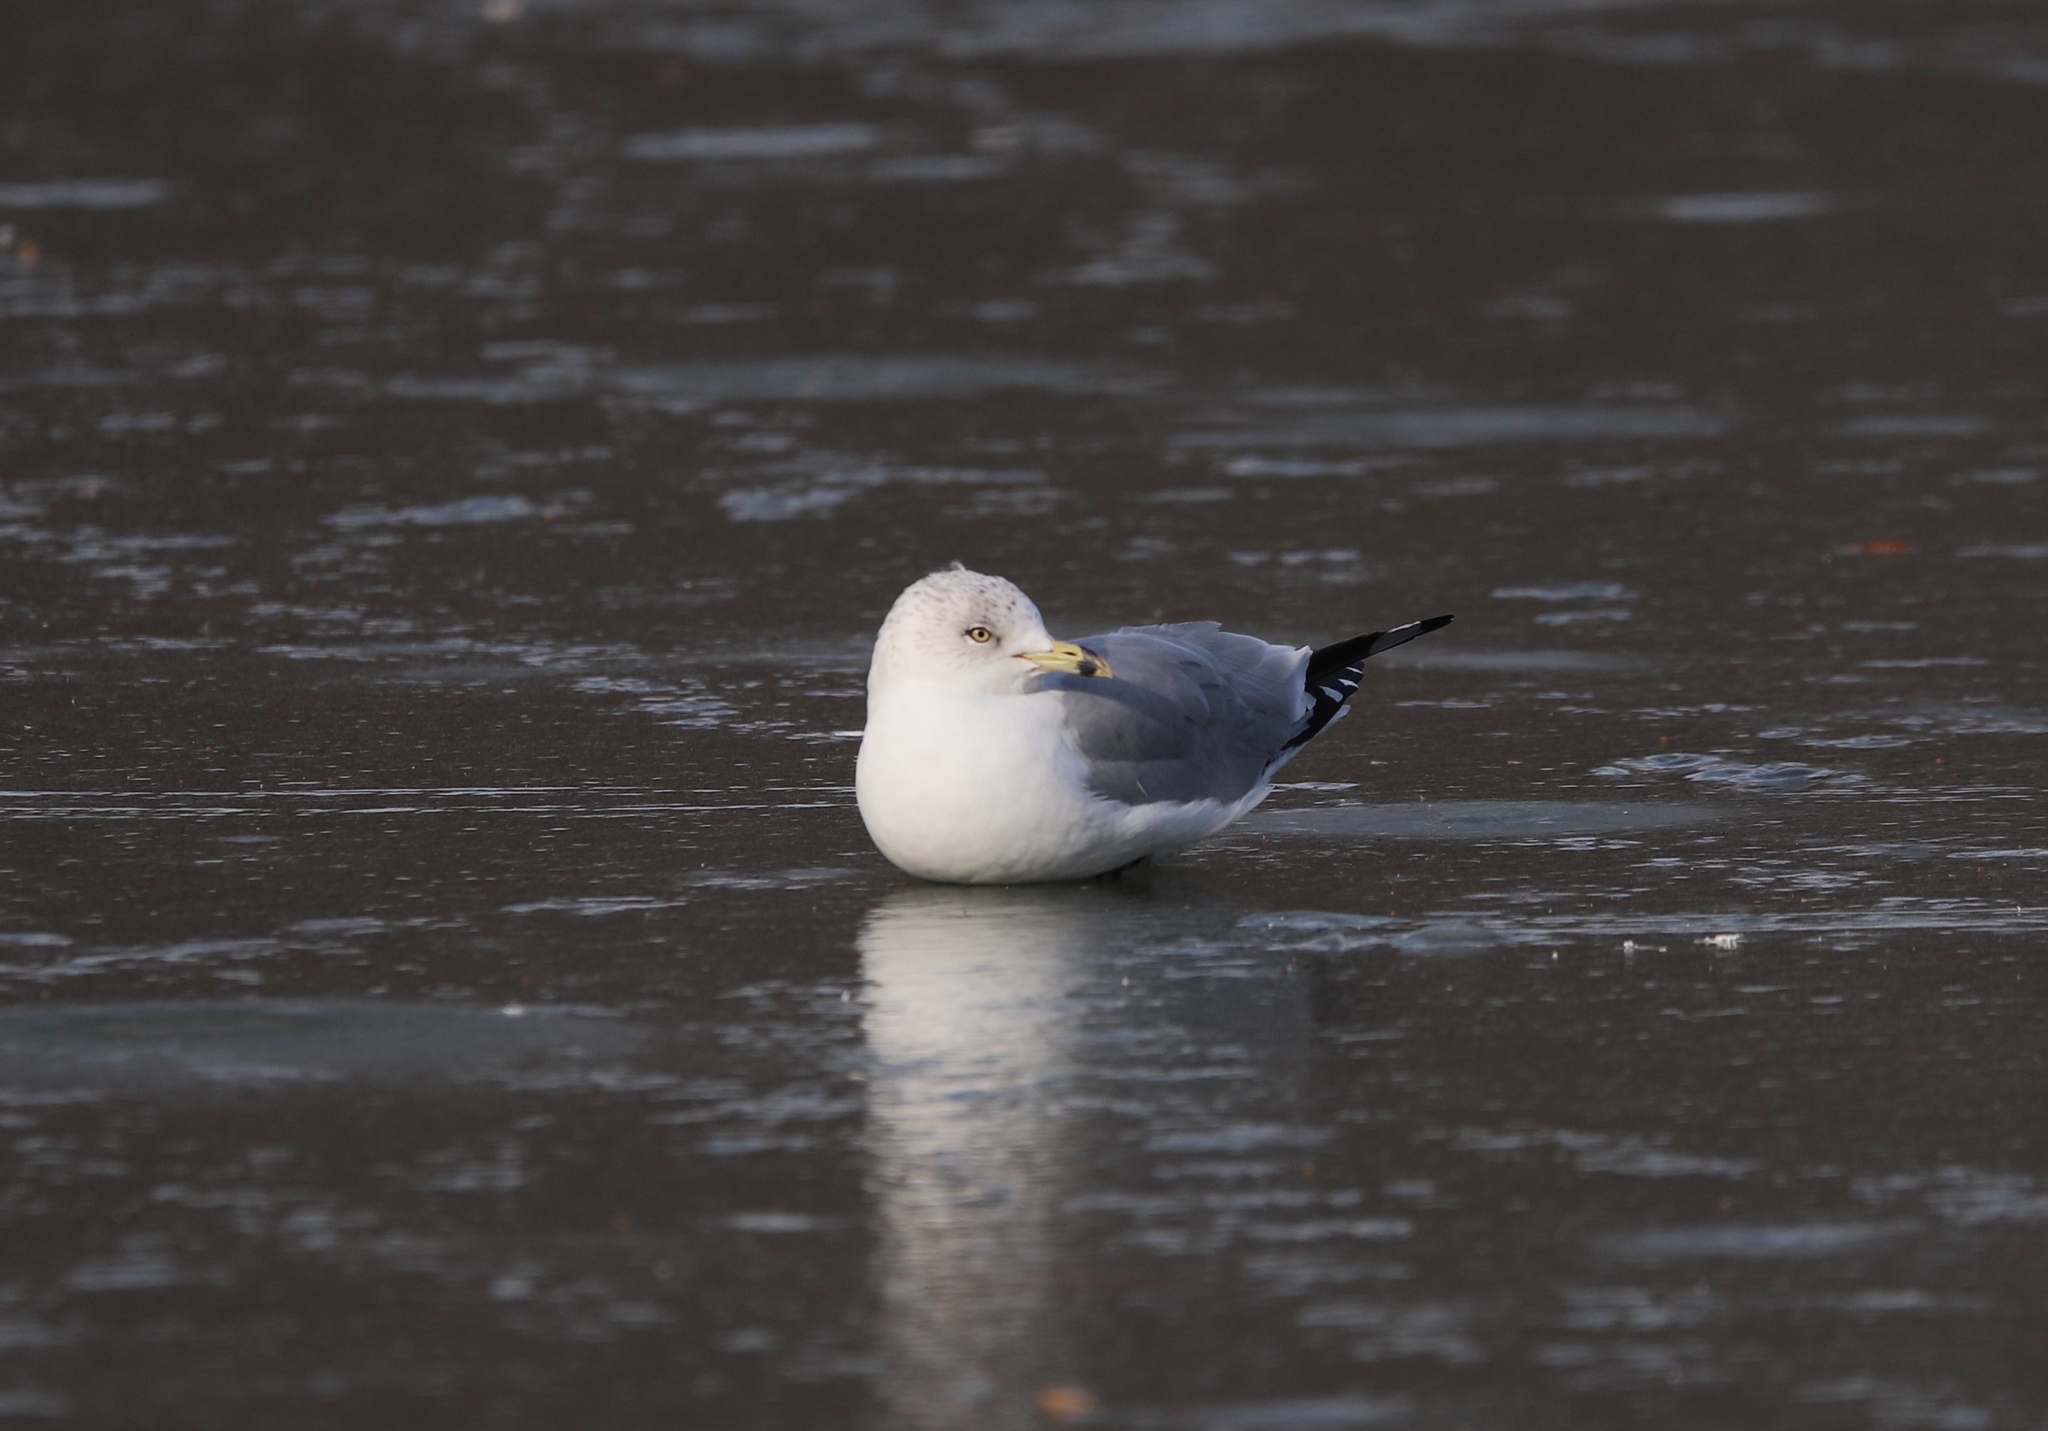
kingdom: Animalia
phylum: Chordata
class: Aves
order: Charadriiformes
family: Laridae
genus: Larus
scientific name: Larus delawarensis
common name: Ring-billed gull
